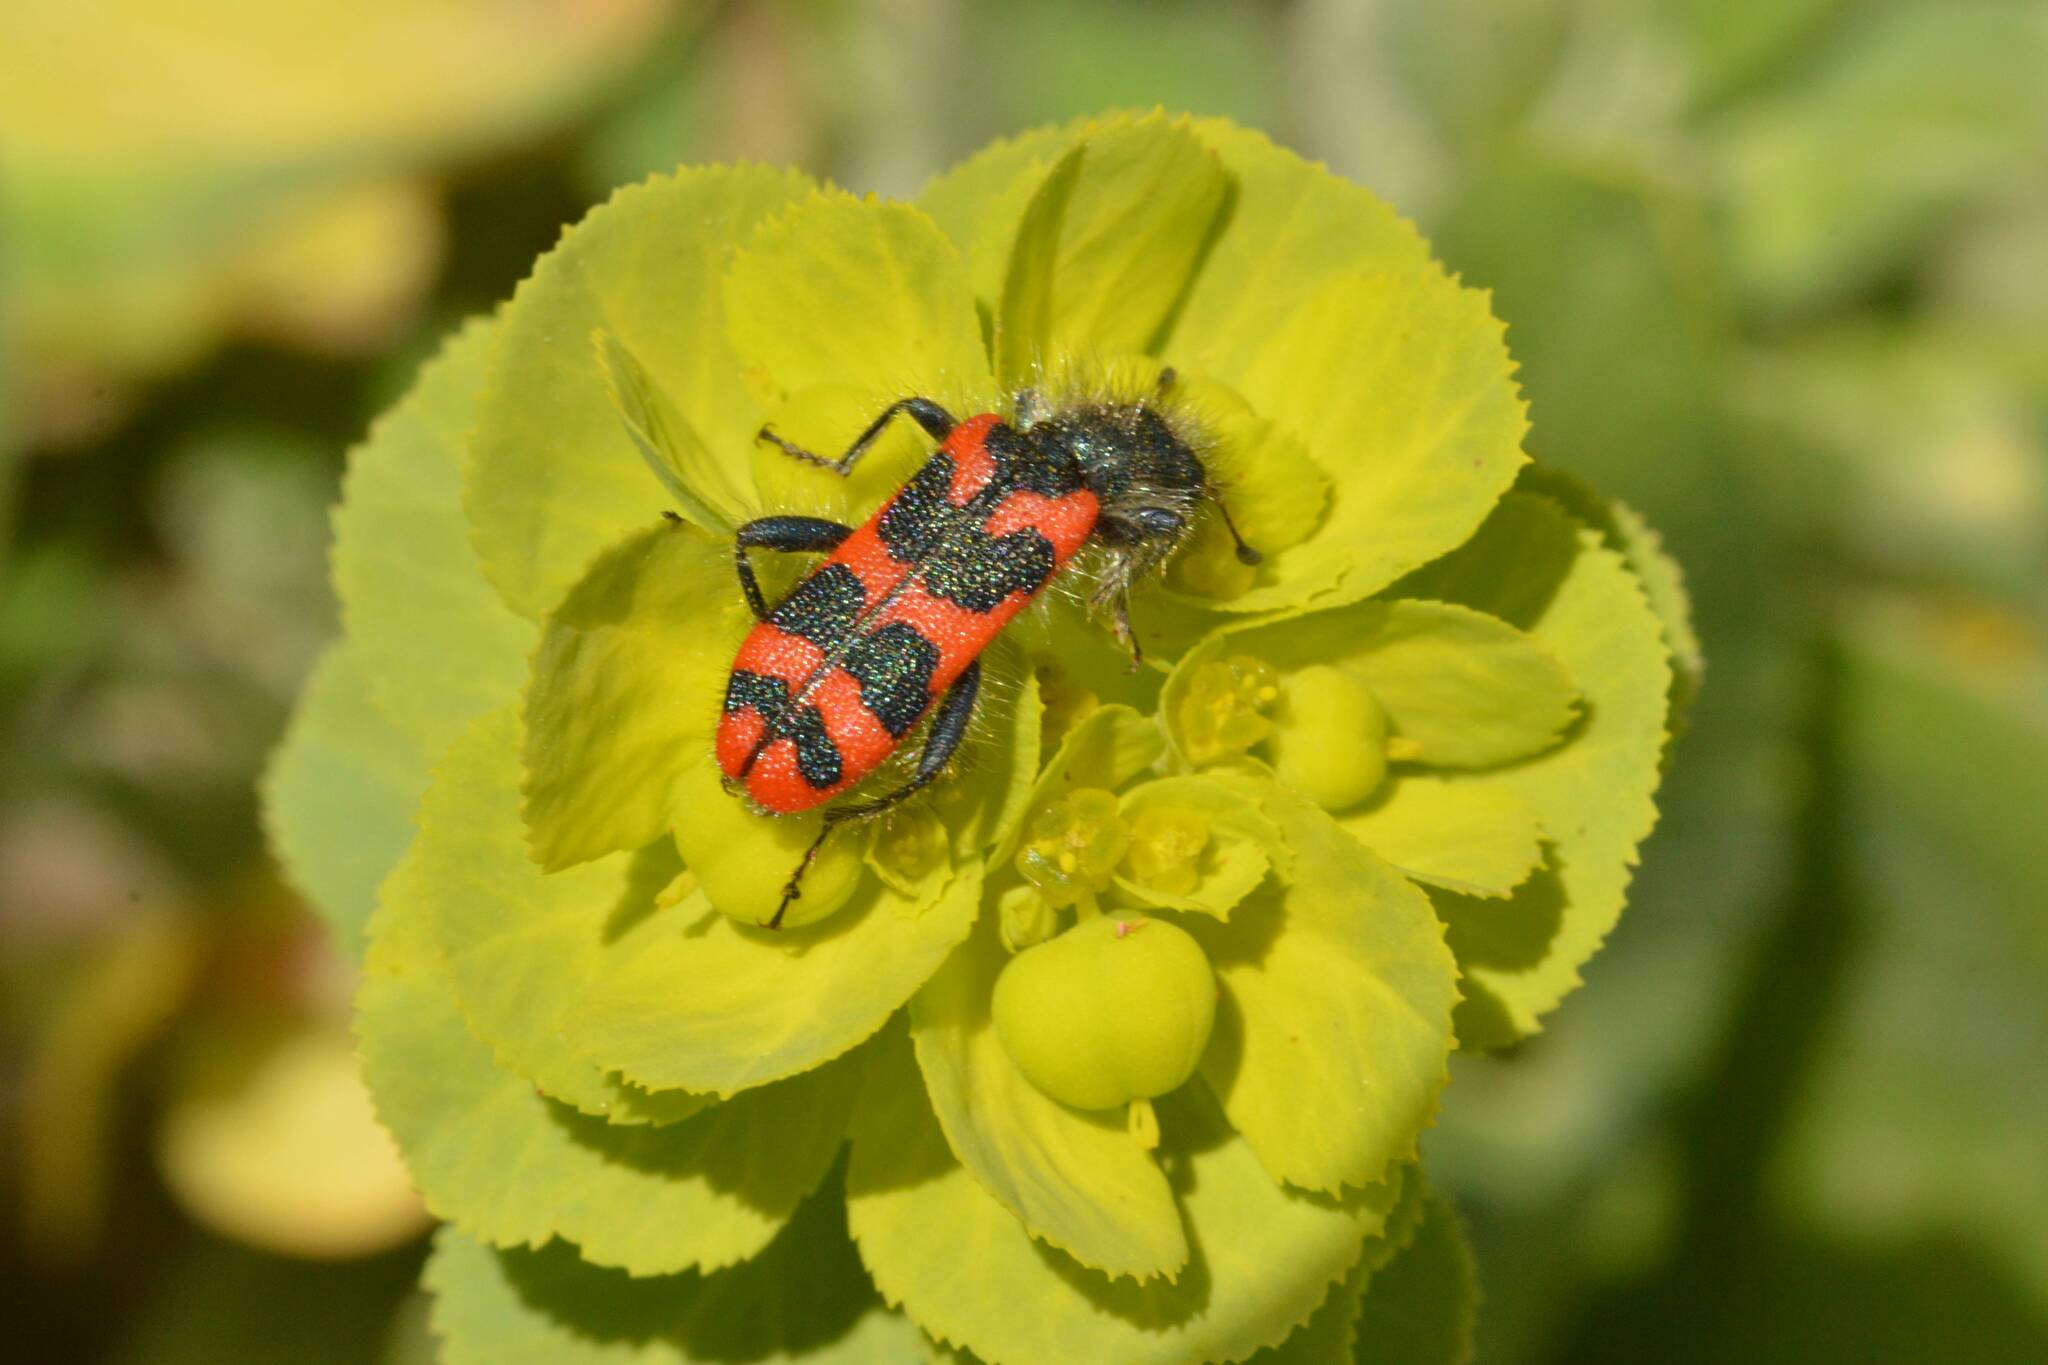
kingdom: Animalia
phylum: Arthropoda
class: Insecta
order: Coleoptera
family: Cleridae
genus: Trichodes
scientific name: Trichodes leucopsideus
